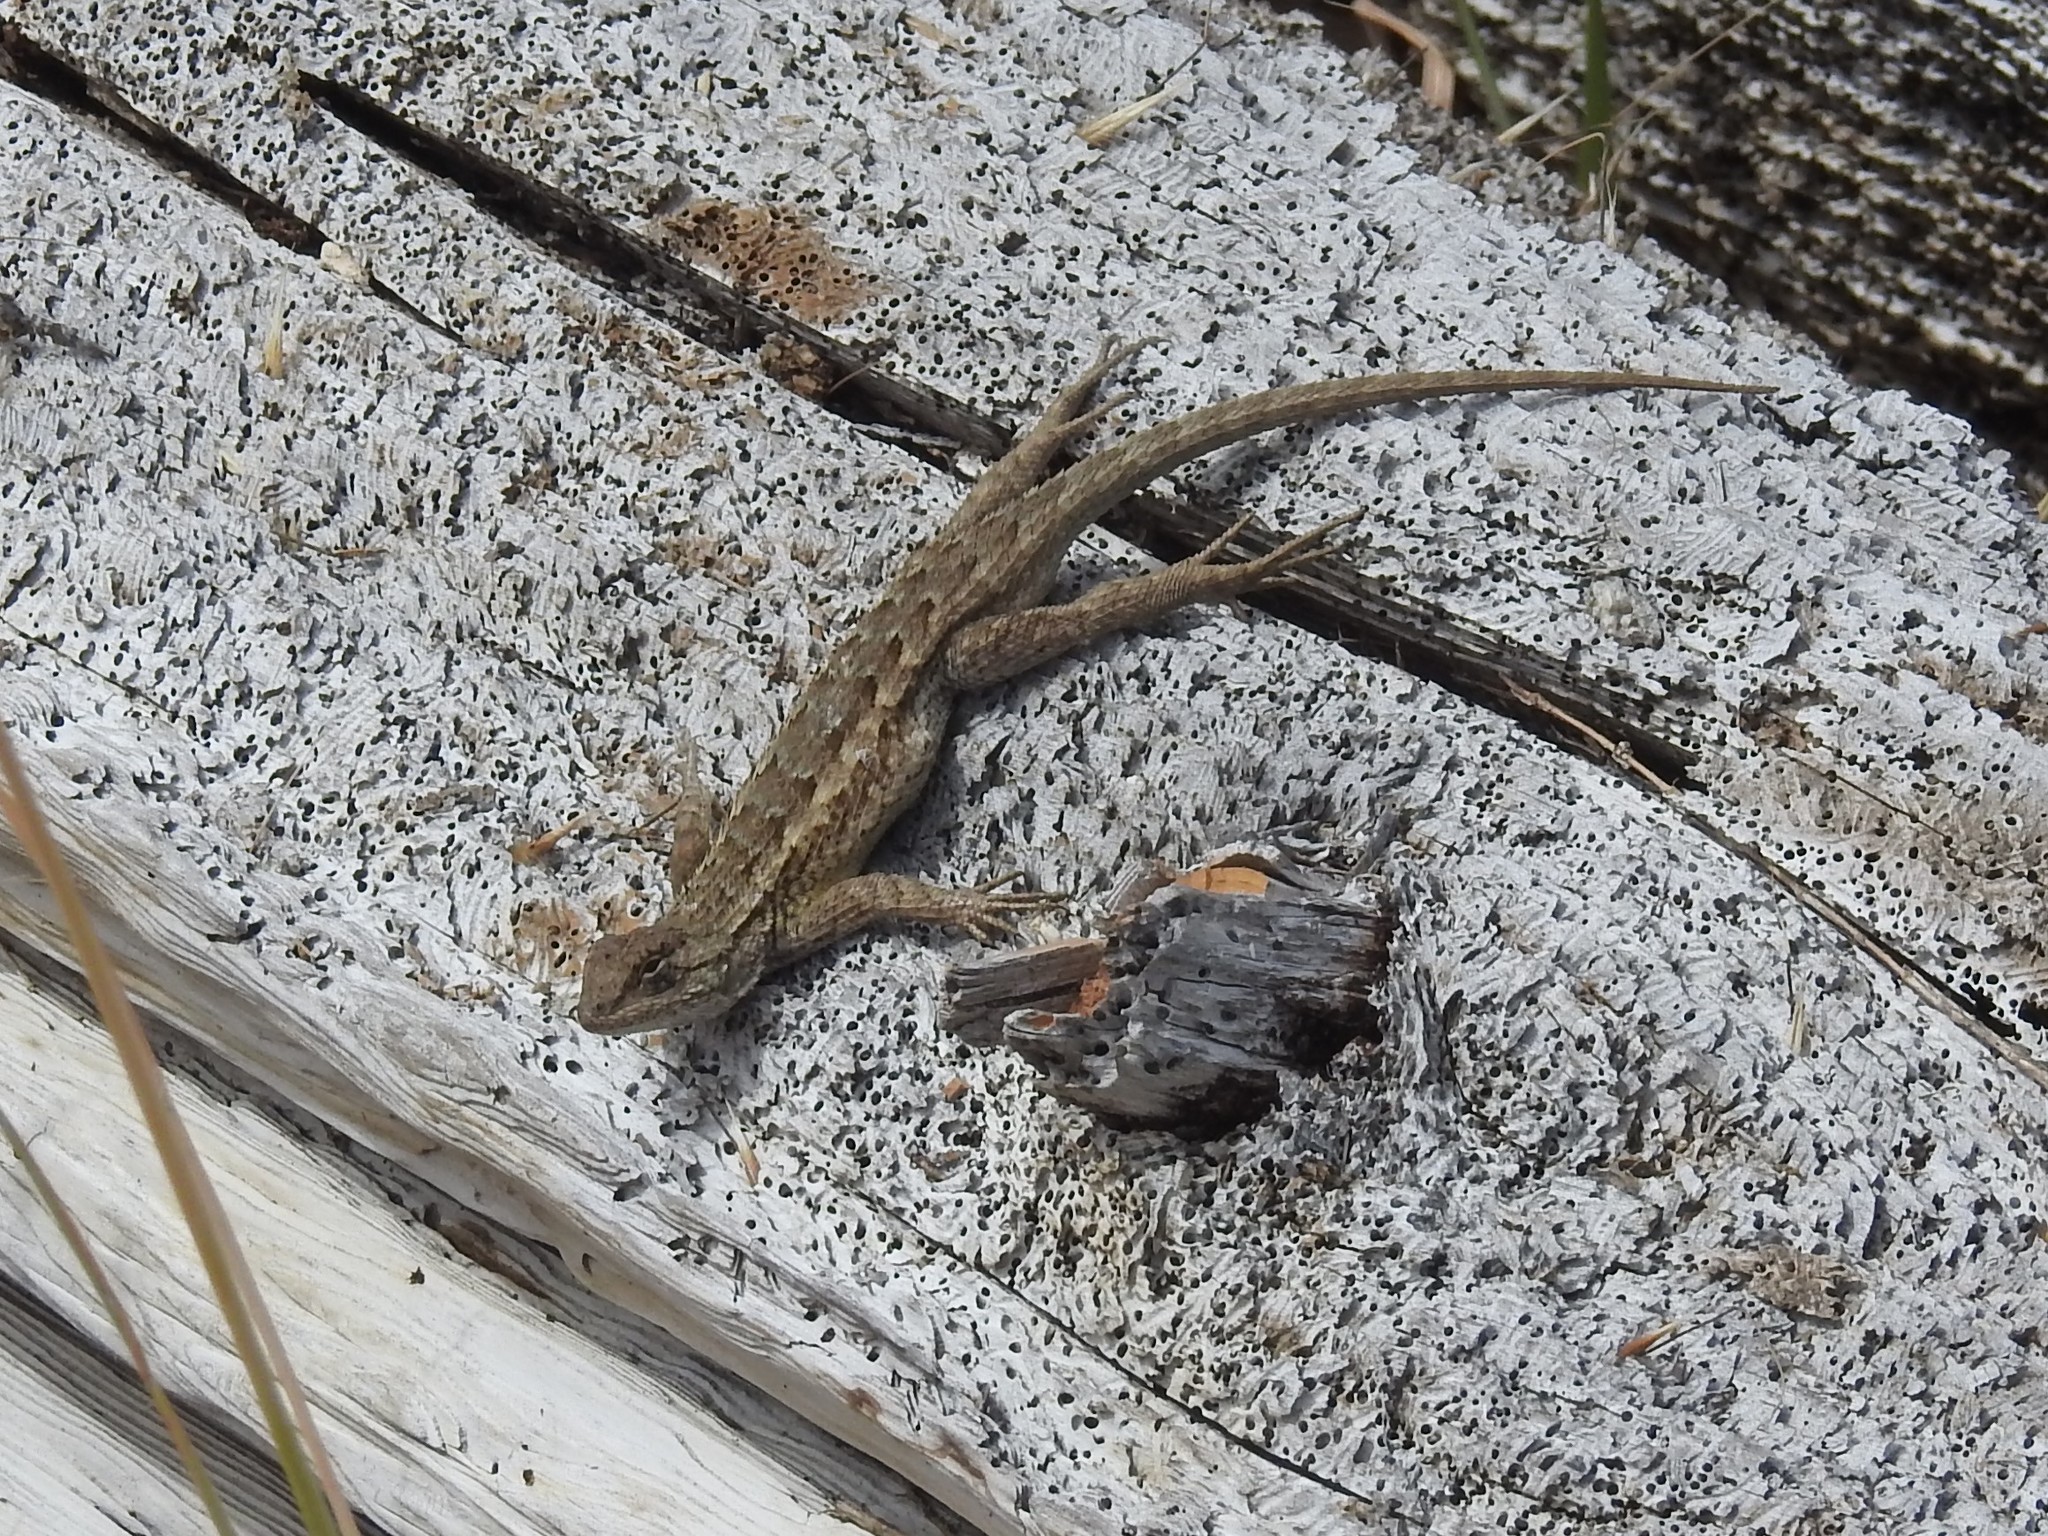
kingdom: Animalia
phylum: Chordata
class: Squamata
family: Phrynosomatidae
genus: Sceloporus
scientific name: Sceloporus occidentalis
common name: Western fence lizard
